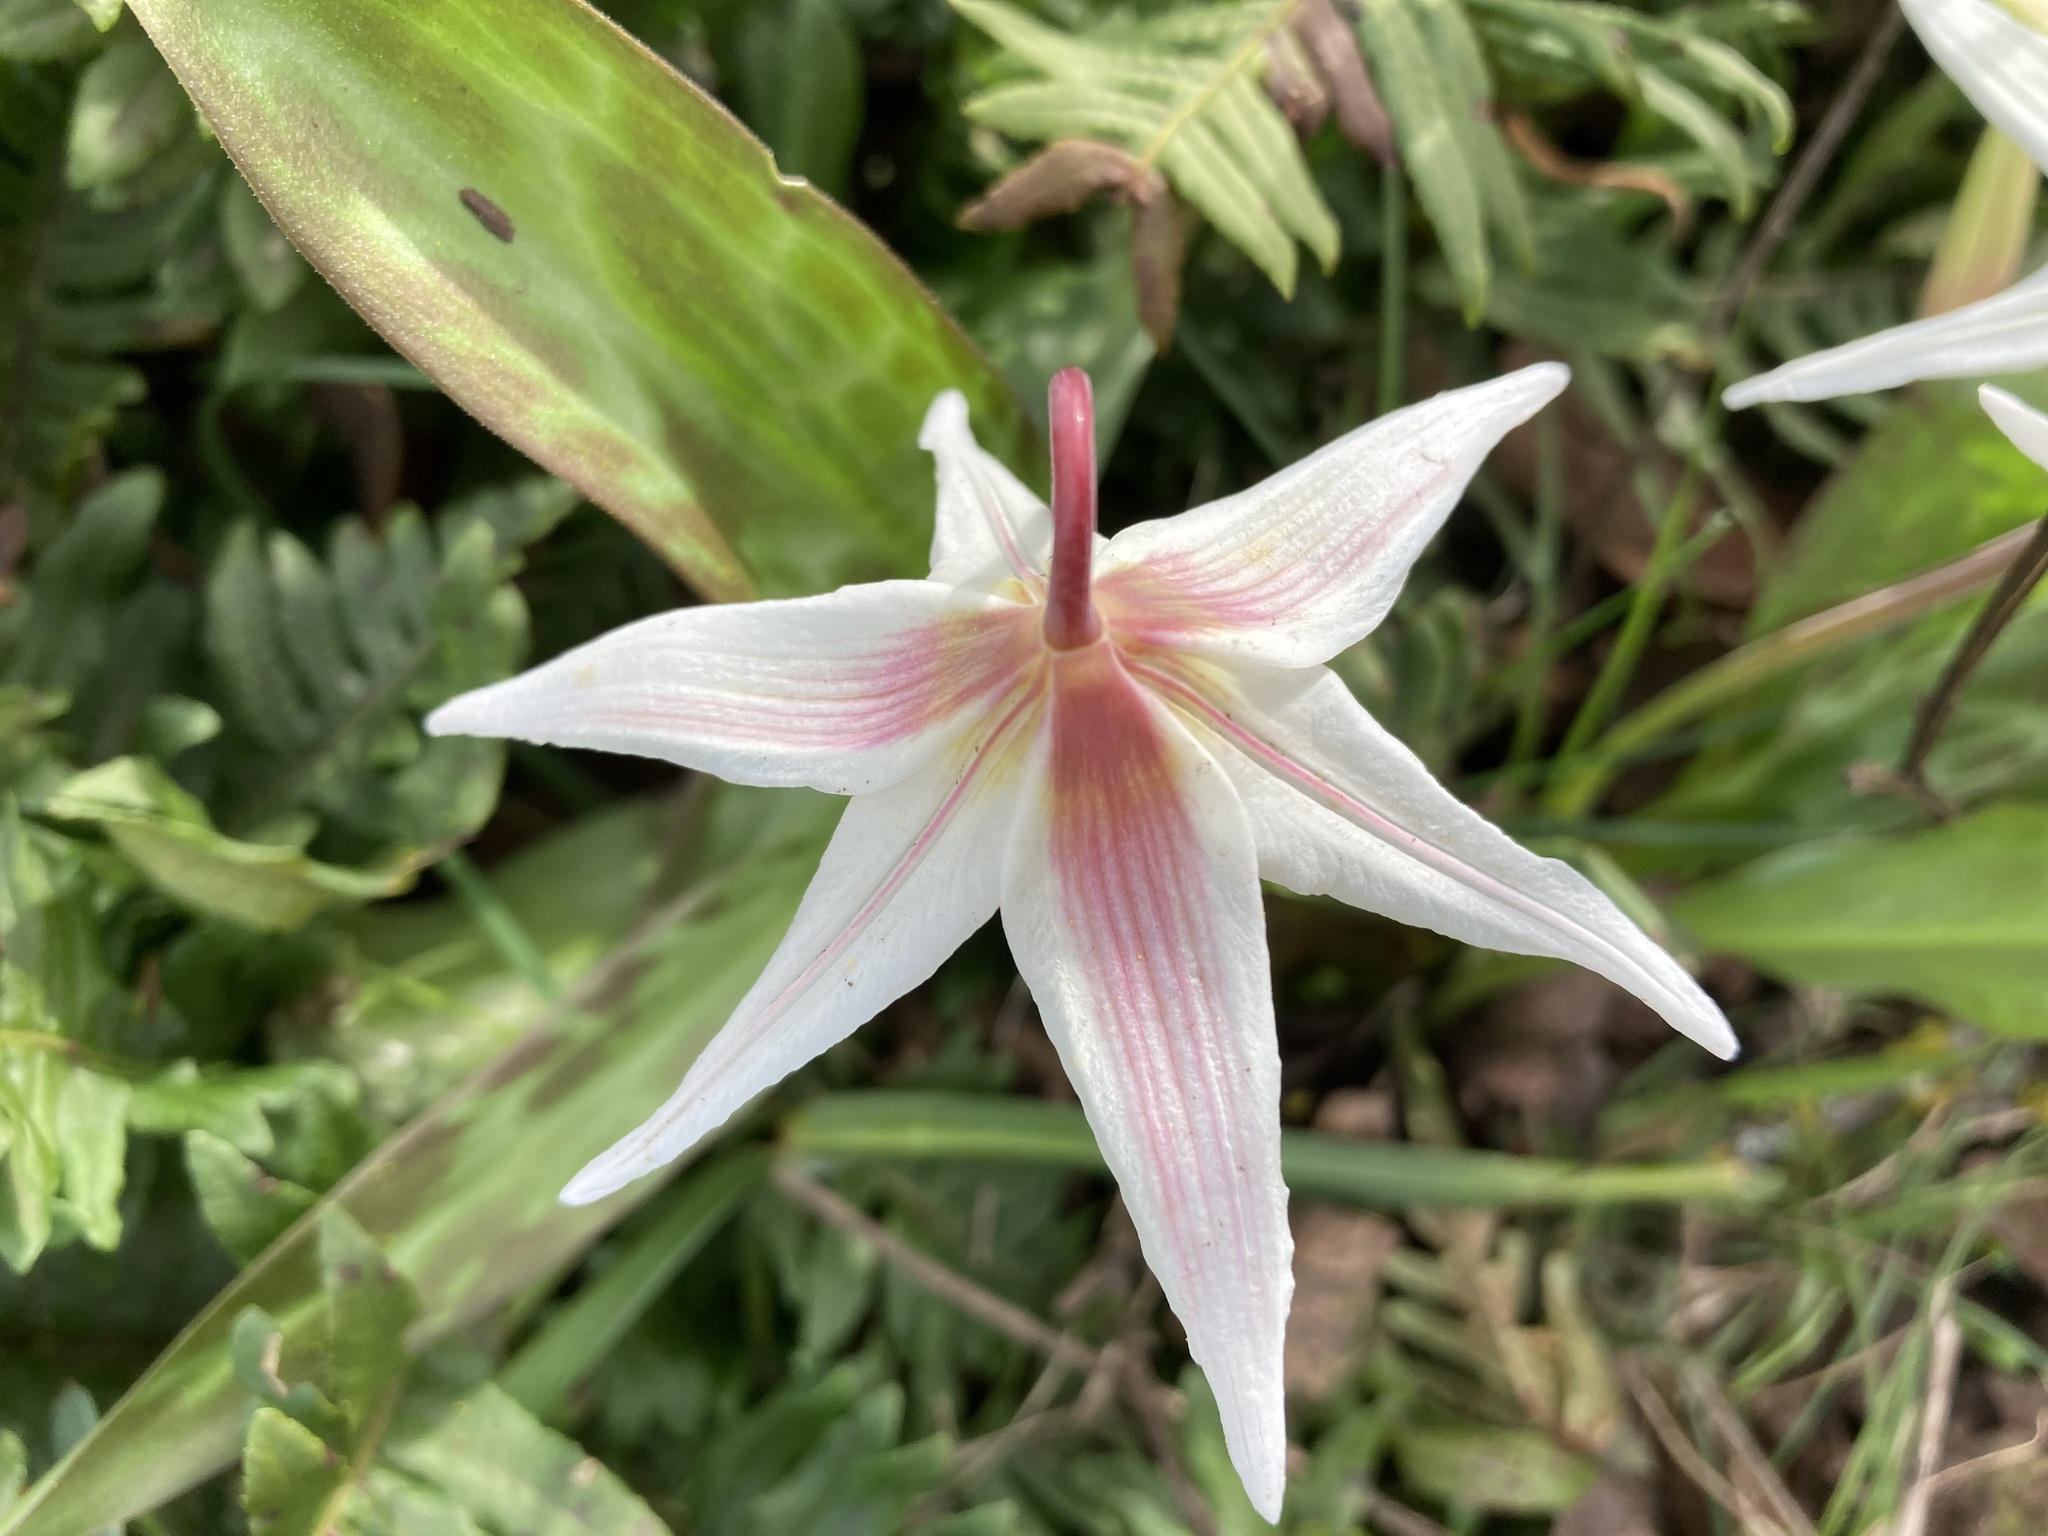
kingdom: Plantae
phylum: Tracheophyta
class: Liliopsida
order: Liliales
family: Liliaceae
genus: Erythronium
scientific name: Erythronium oregonum
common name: Giant adder's-tongue
